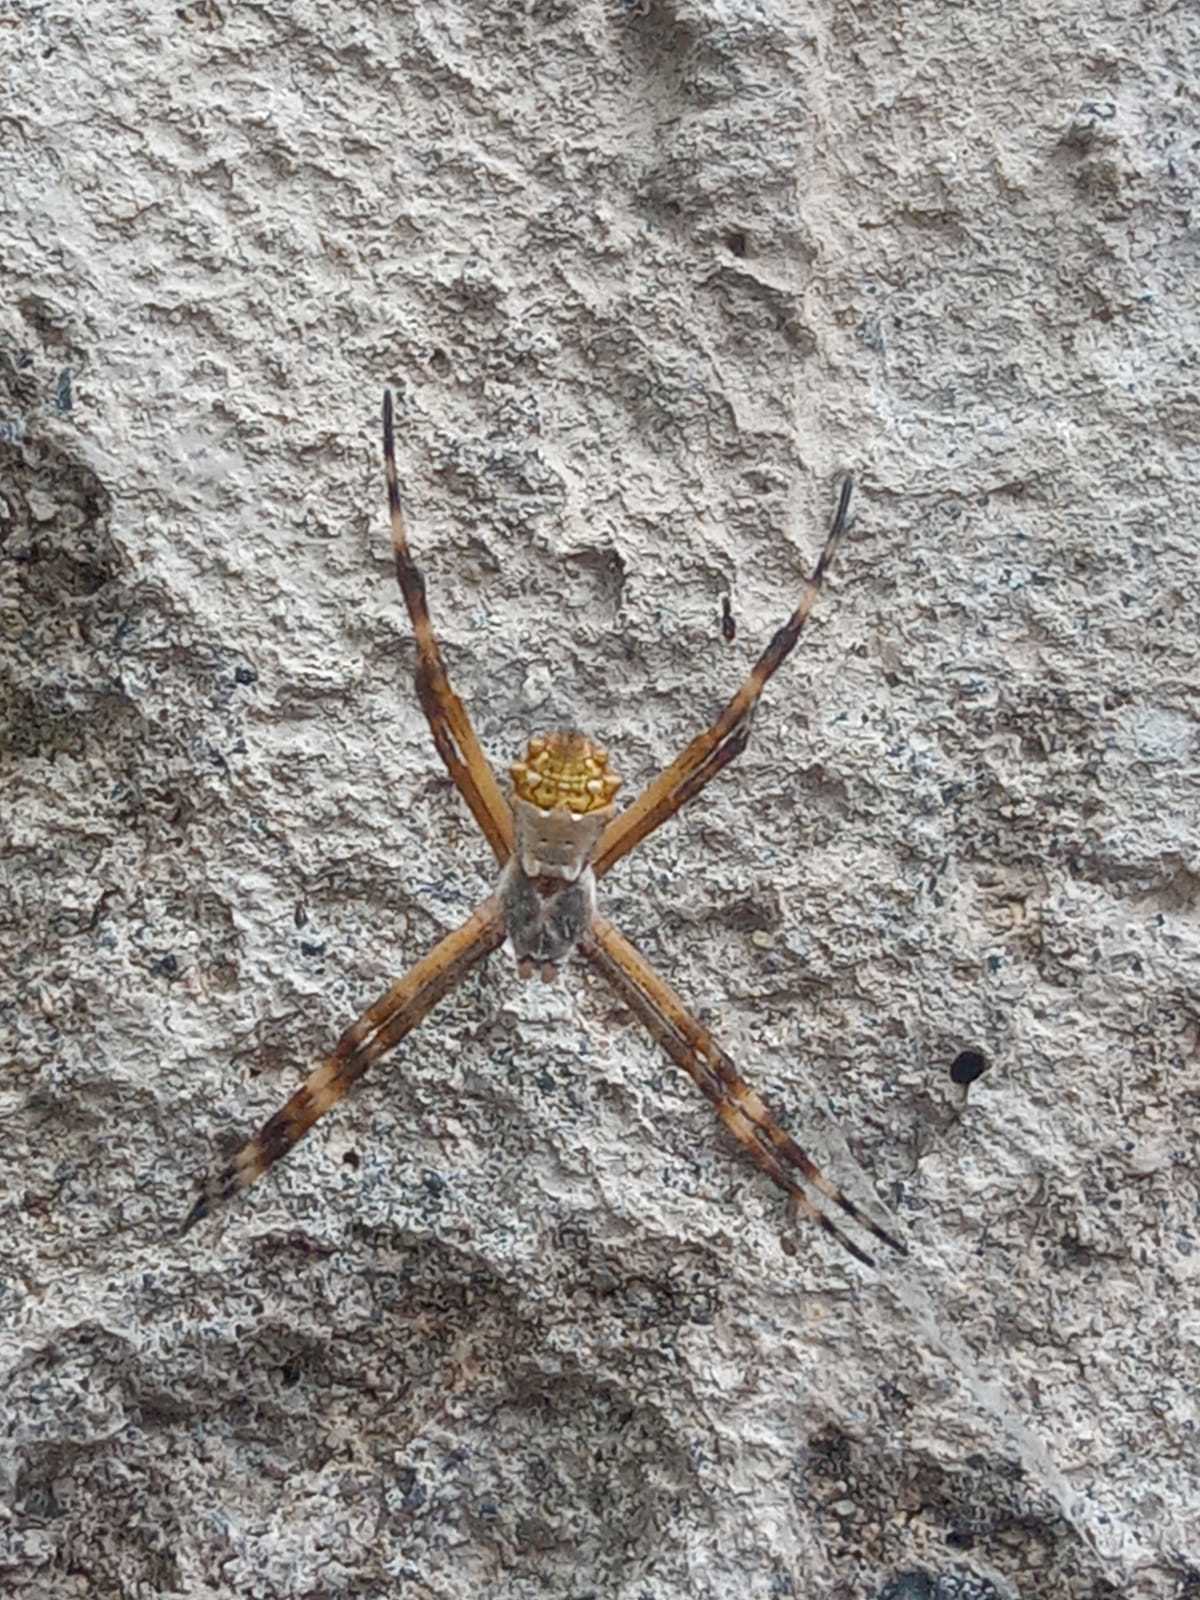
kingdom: Animalia
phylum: Arthropoda
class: Arachnida
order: Araneae
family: Araneidae
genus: Argiope
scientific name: Argiope argentata
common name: Orb weavers
